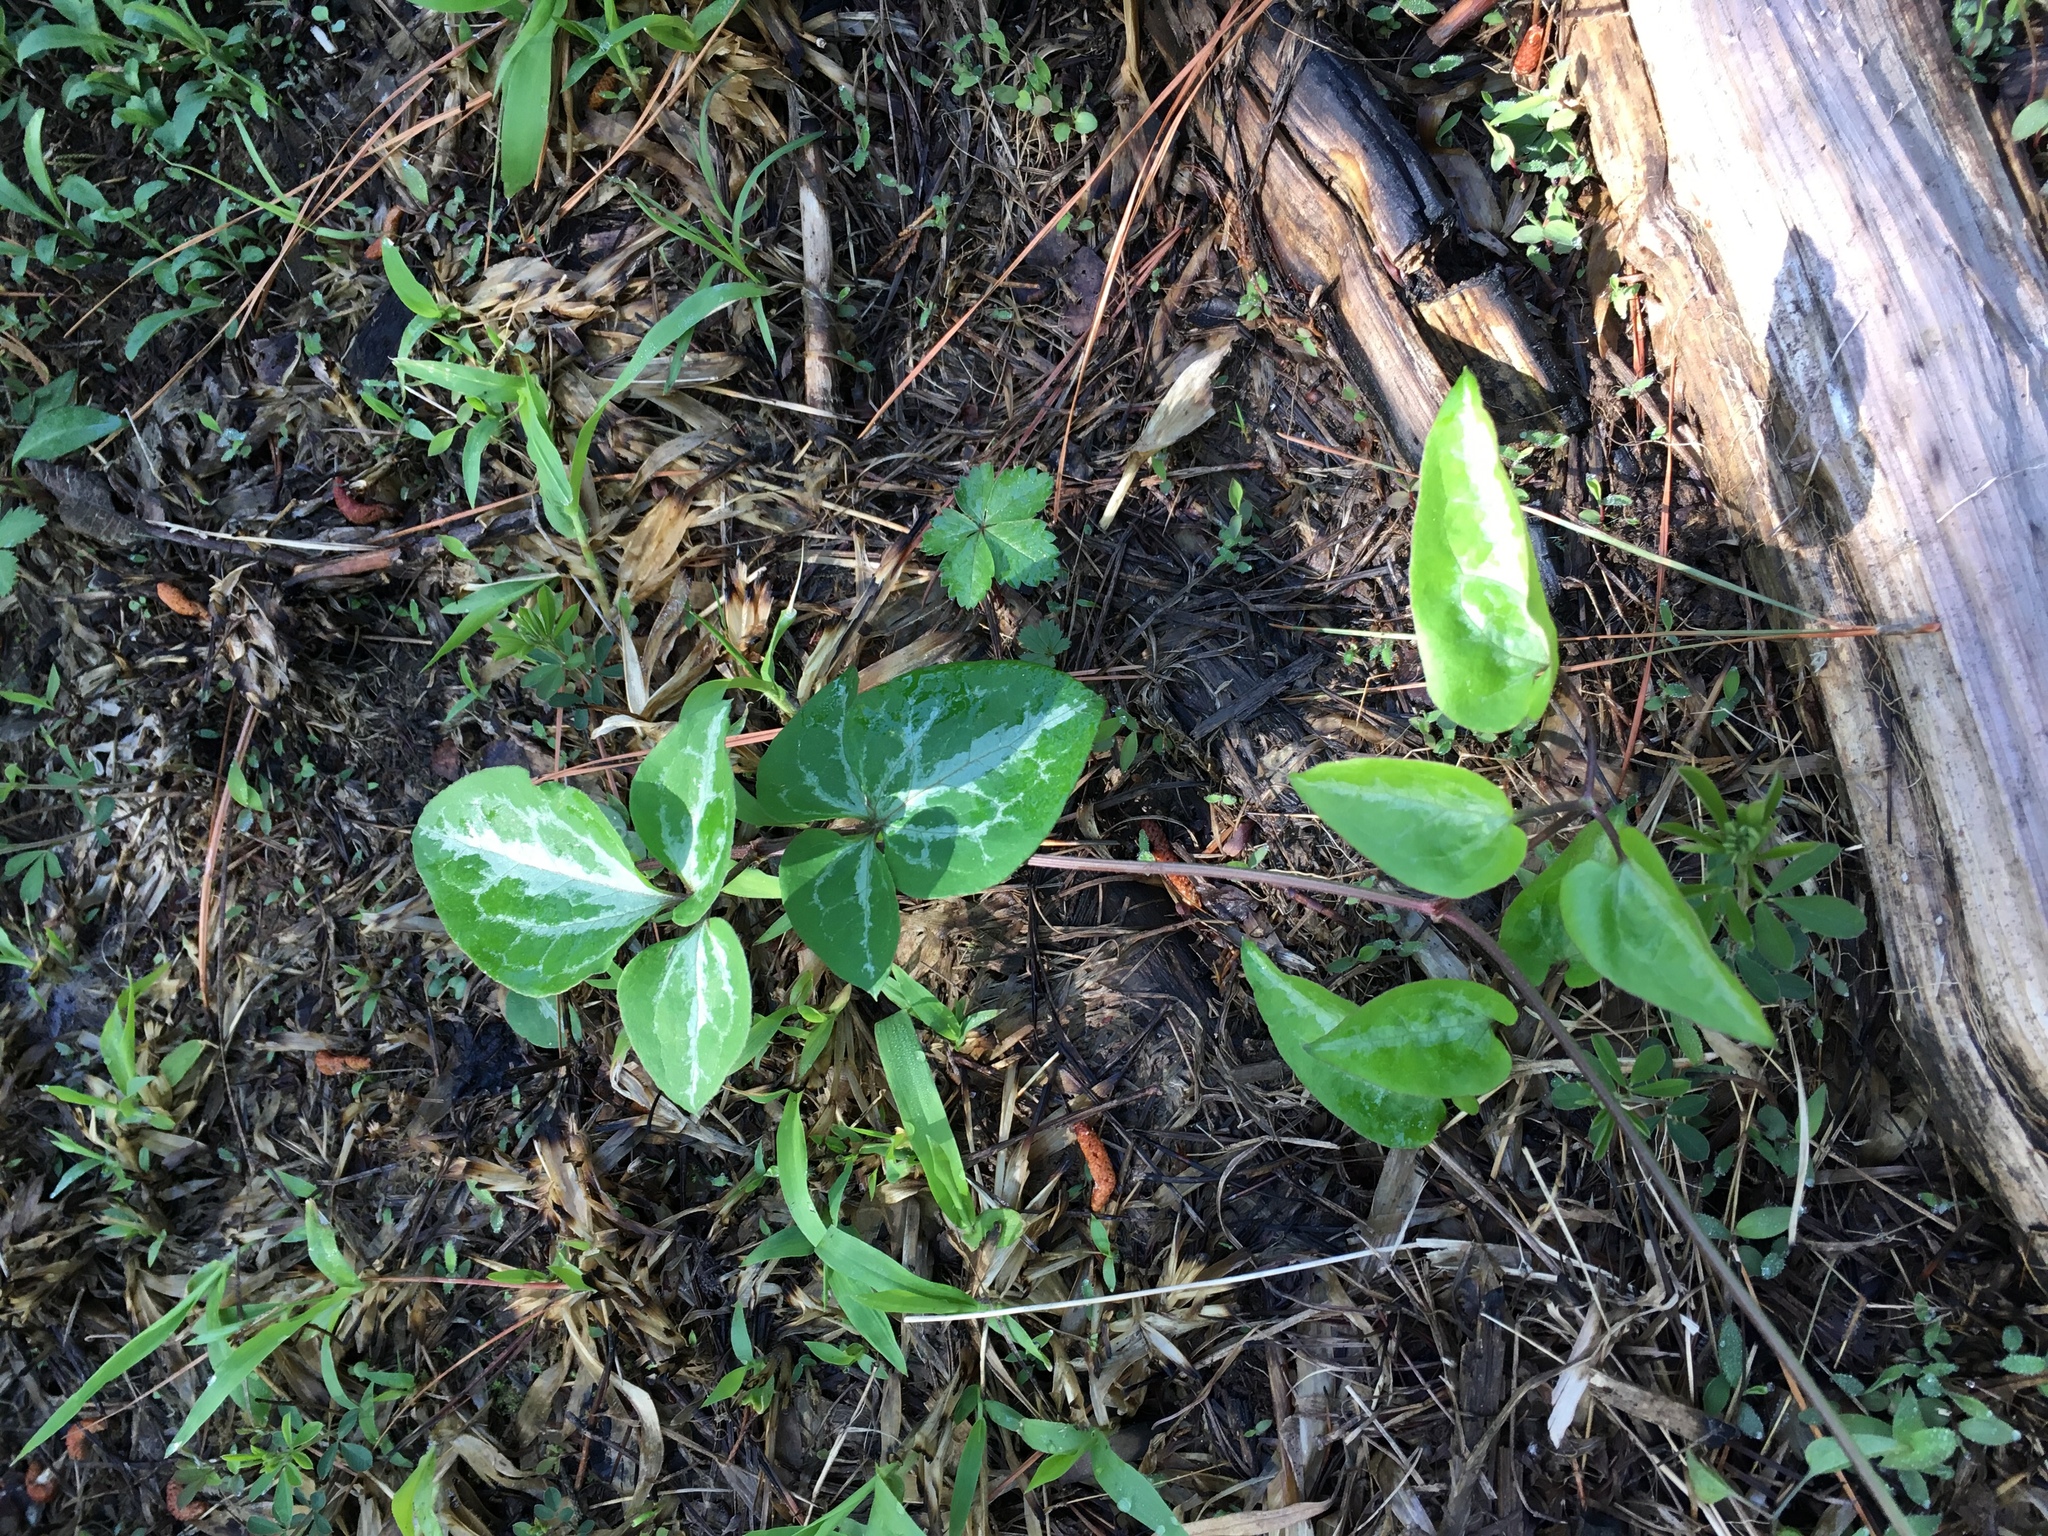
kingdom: Plantae
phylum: Tracheophyta
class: Magnoliopsida
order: Ranunculales
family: Ranunculaceae
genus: Clematis
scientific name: Clematis terniflora
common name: Sweet autumn clematis
